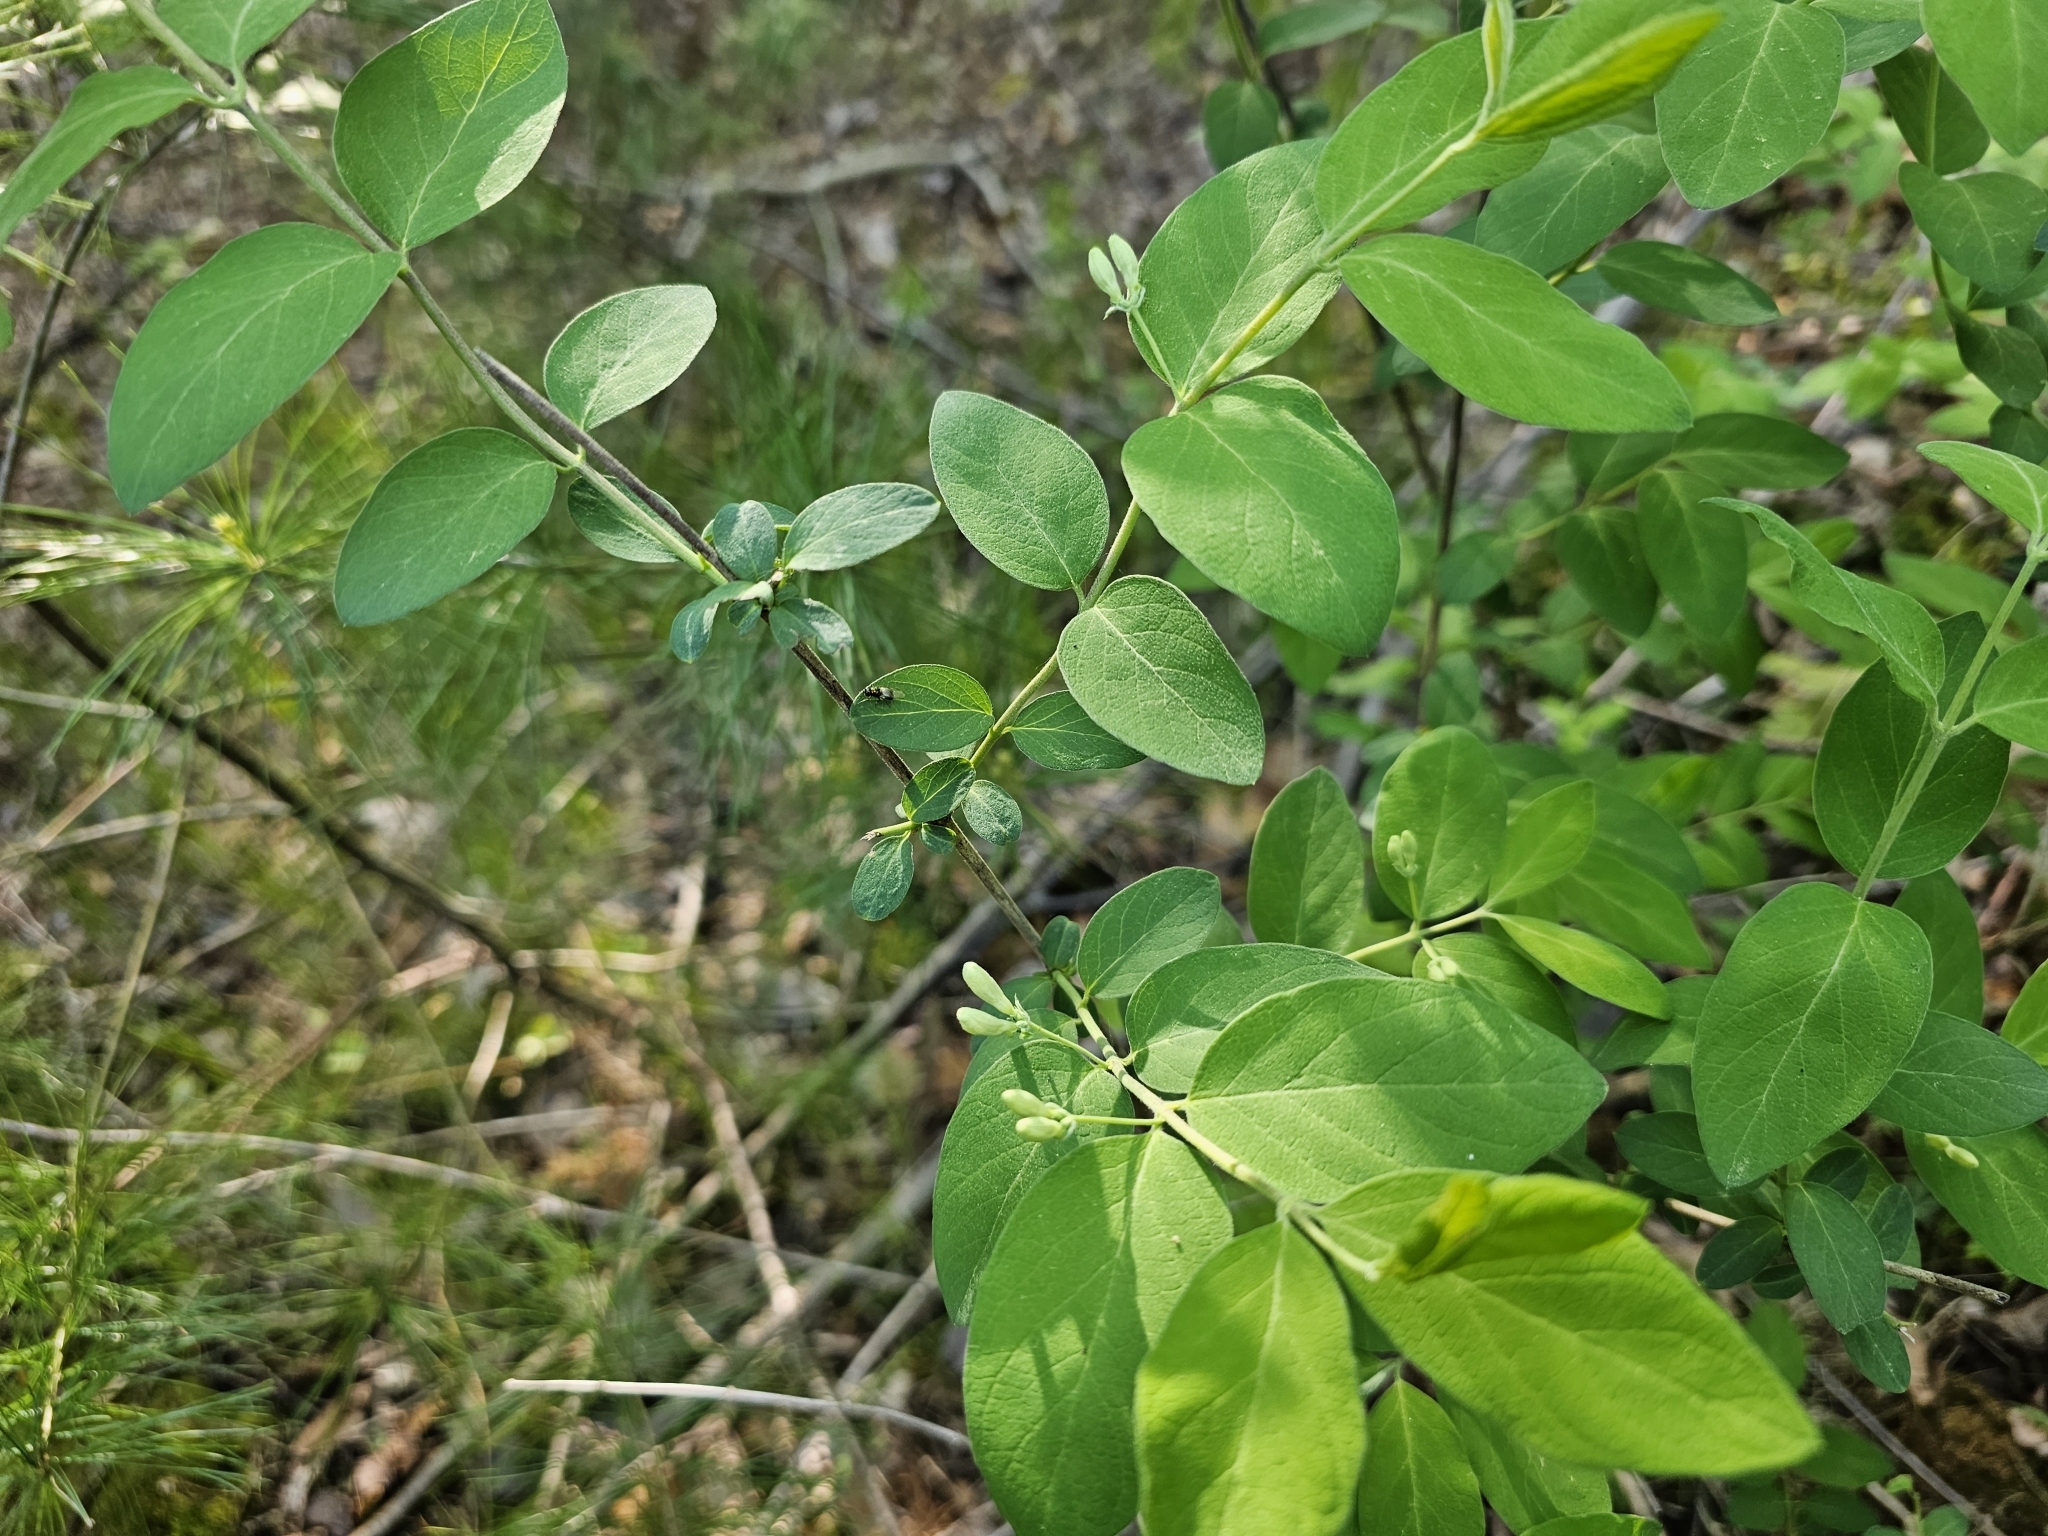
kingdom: Animalia
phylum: Arthropoda
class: Insecta
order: Diptera
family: Stratiomyidae
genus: Microchrysa
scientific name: Microchrysa polita
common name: Black-horned gem
